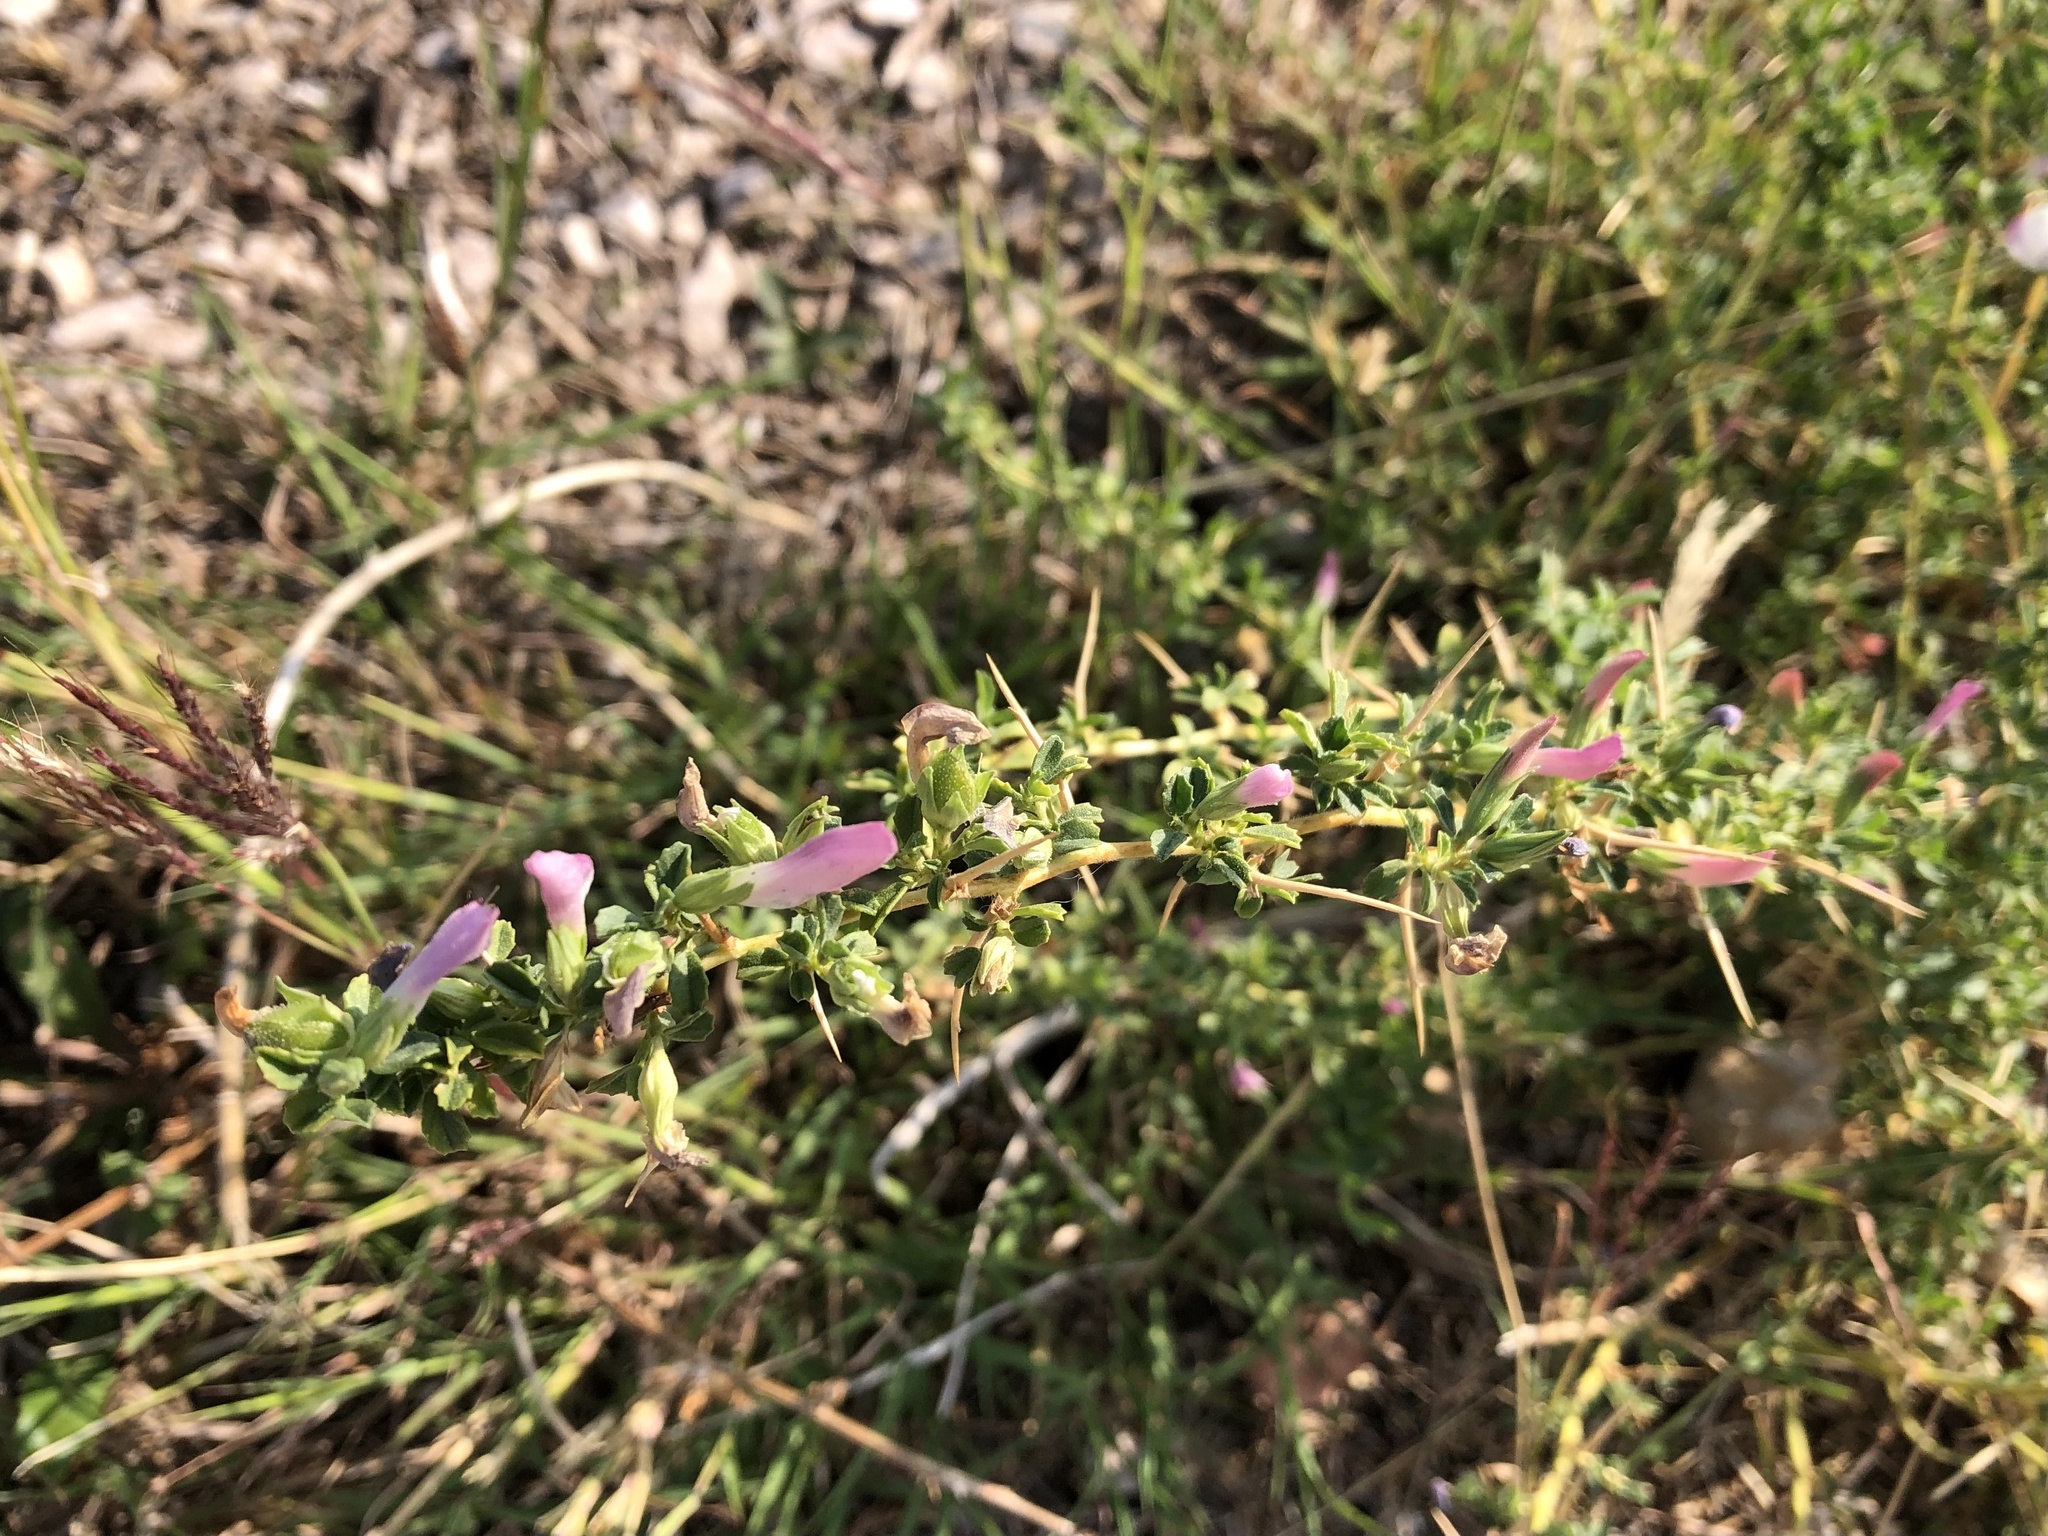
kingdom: Plantae
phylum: Tracheophyta
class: Magnoliopsida
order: Fabales
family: Fabaceae
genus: Ononis
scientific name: Ononis spinosa
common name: Spiny restharrow
